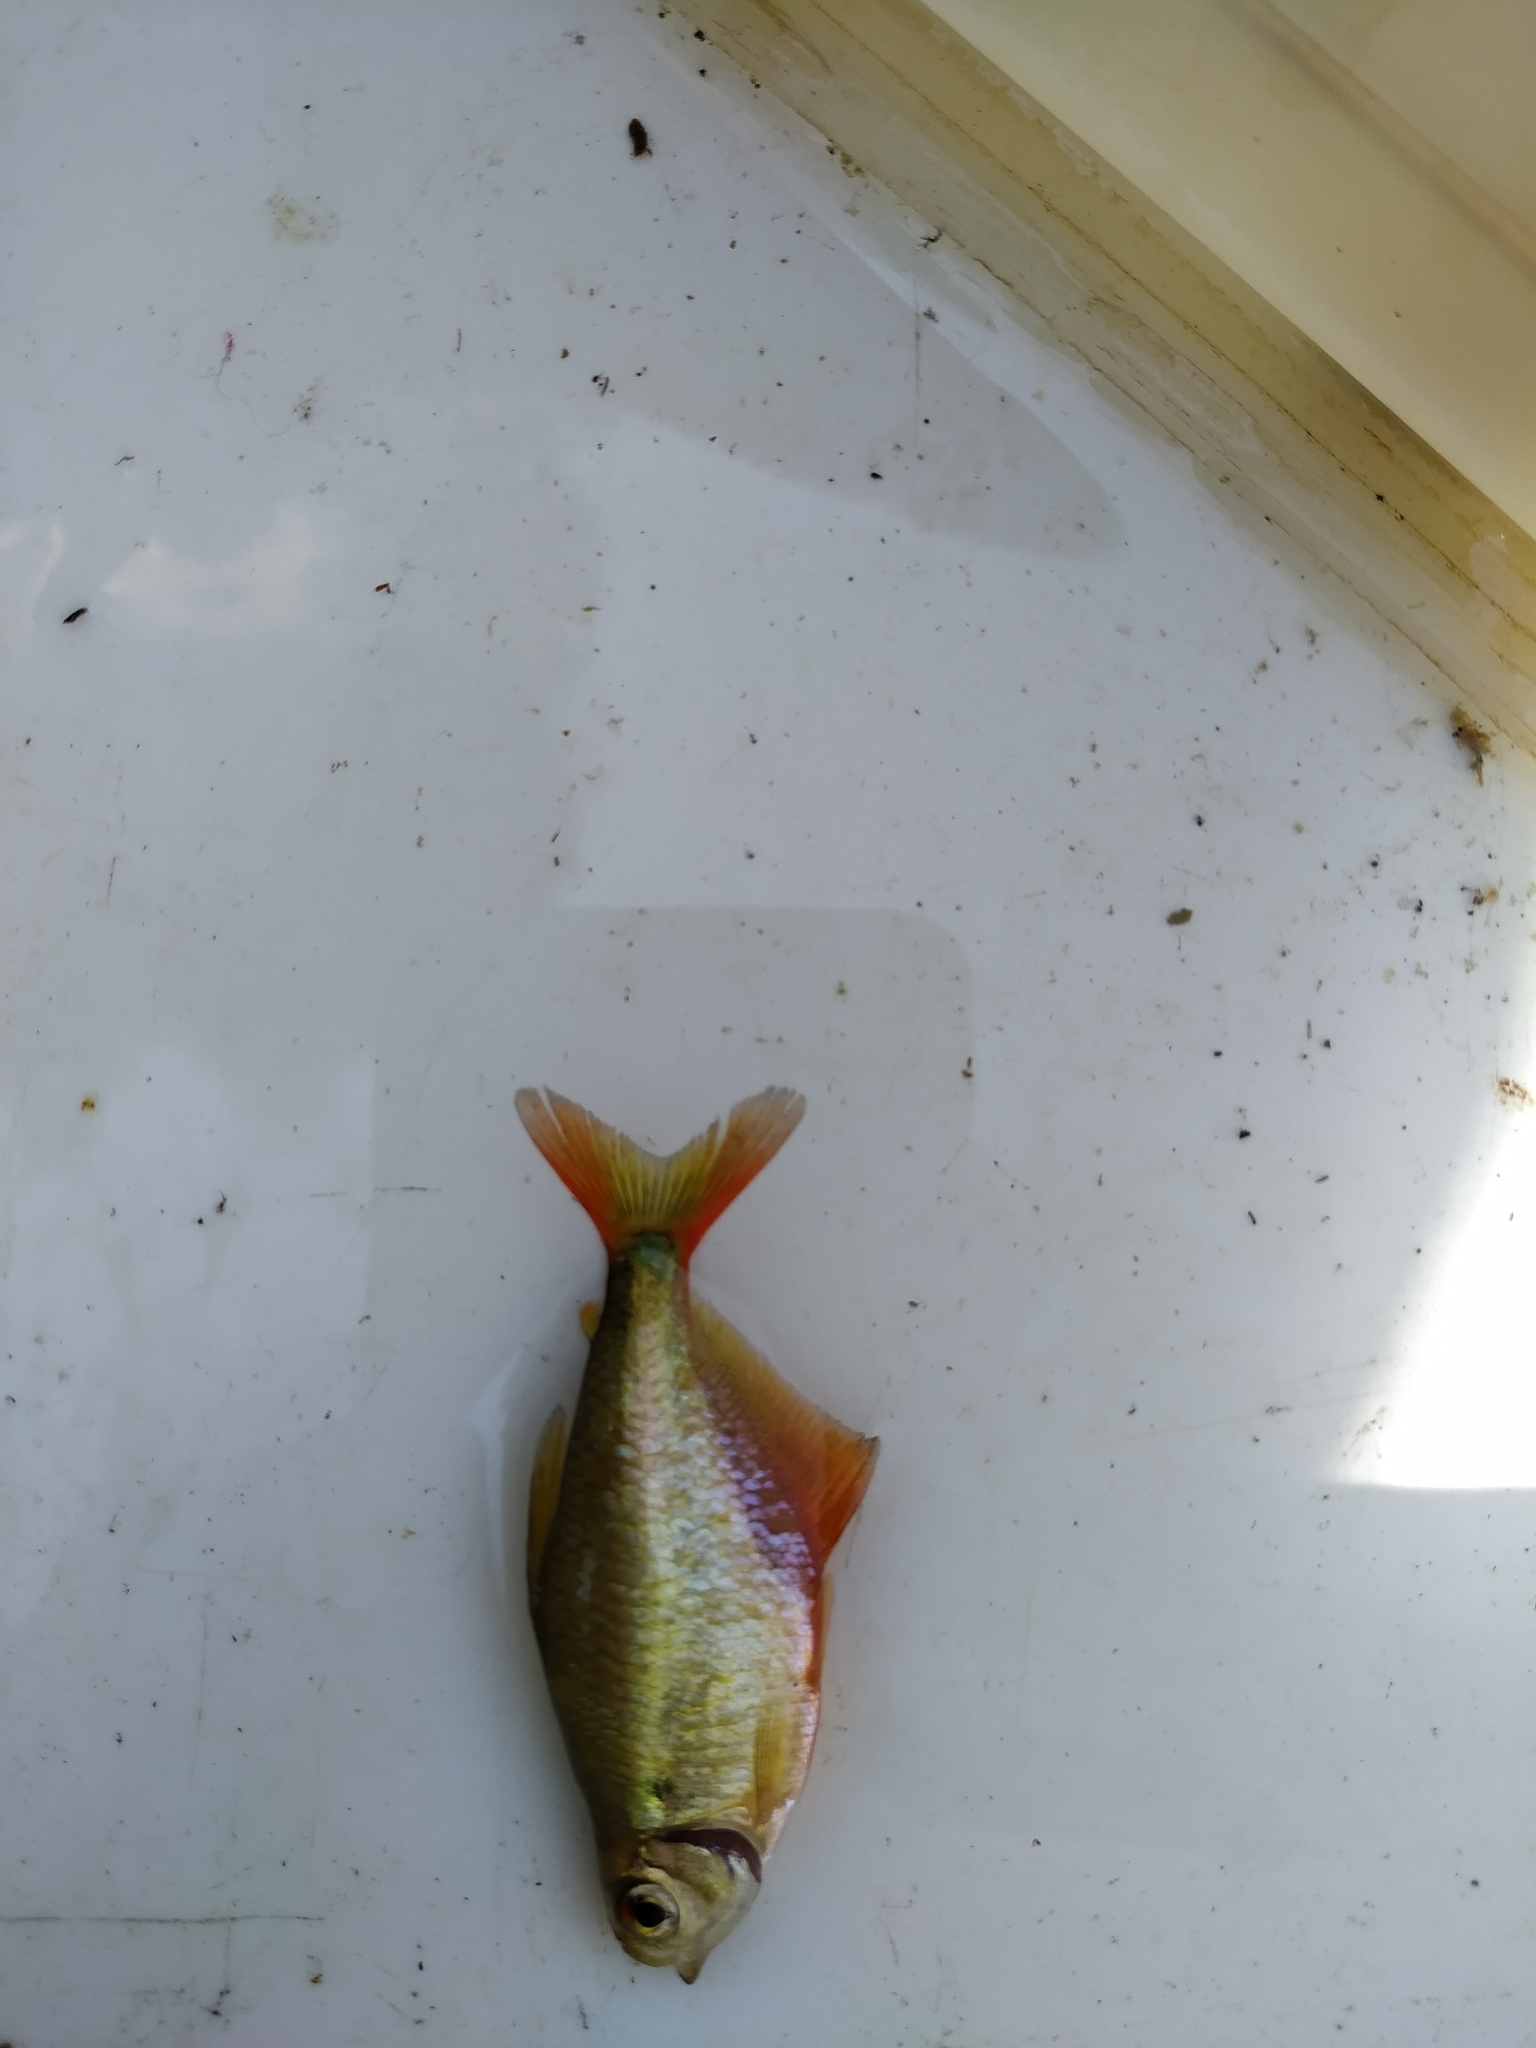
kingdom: Animalia
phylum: Chordata
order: Characiformes
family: Characidae
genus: Hyphessobrycon
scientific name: Hyphessobrycon meridionalis
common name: Tetra
